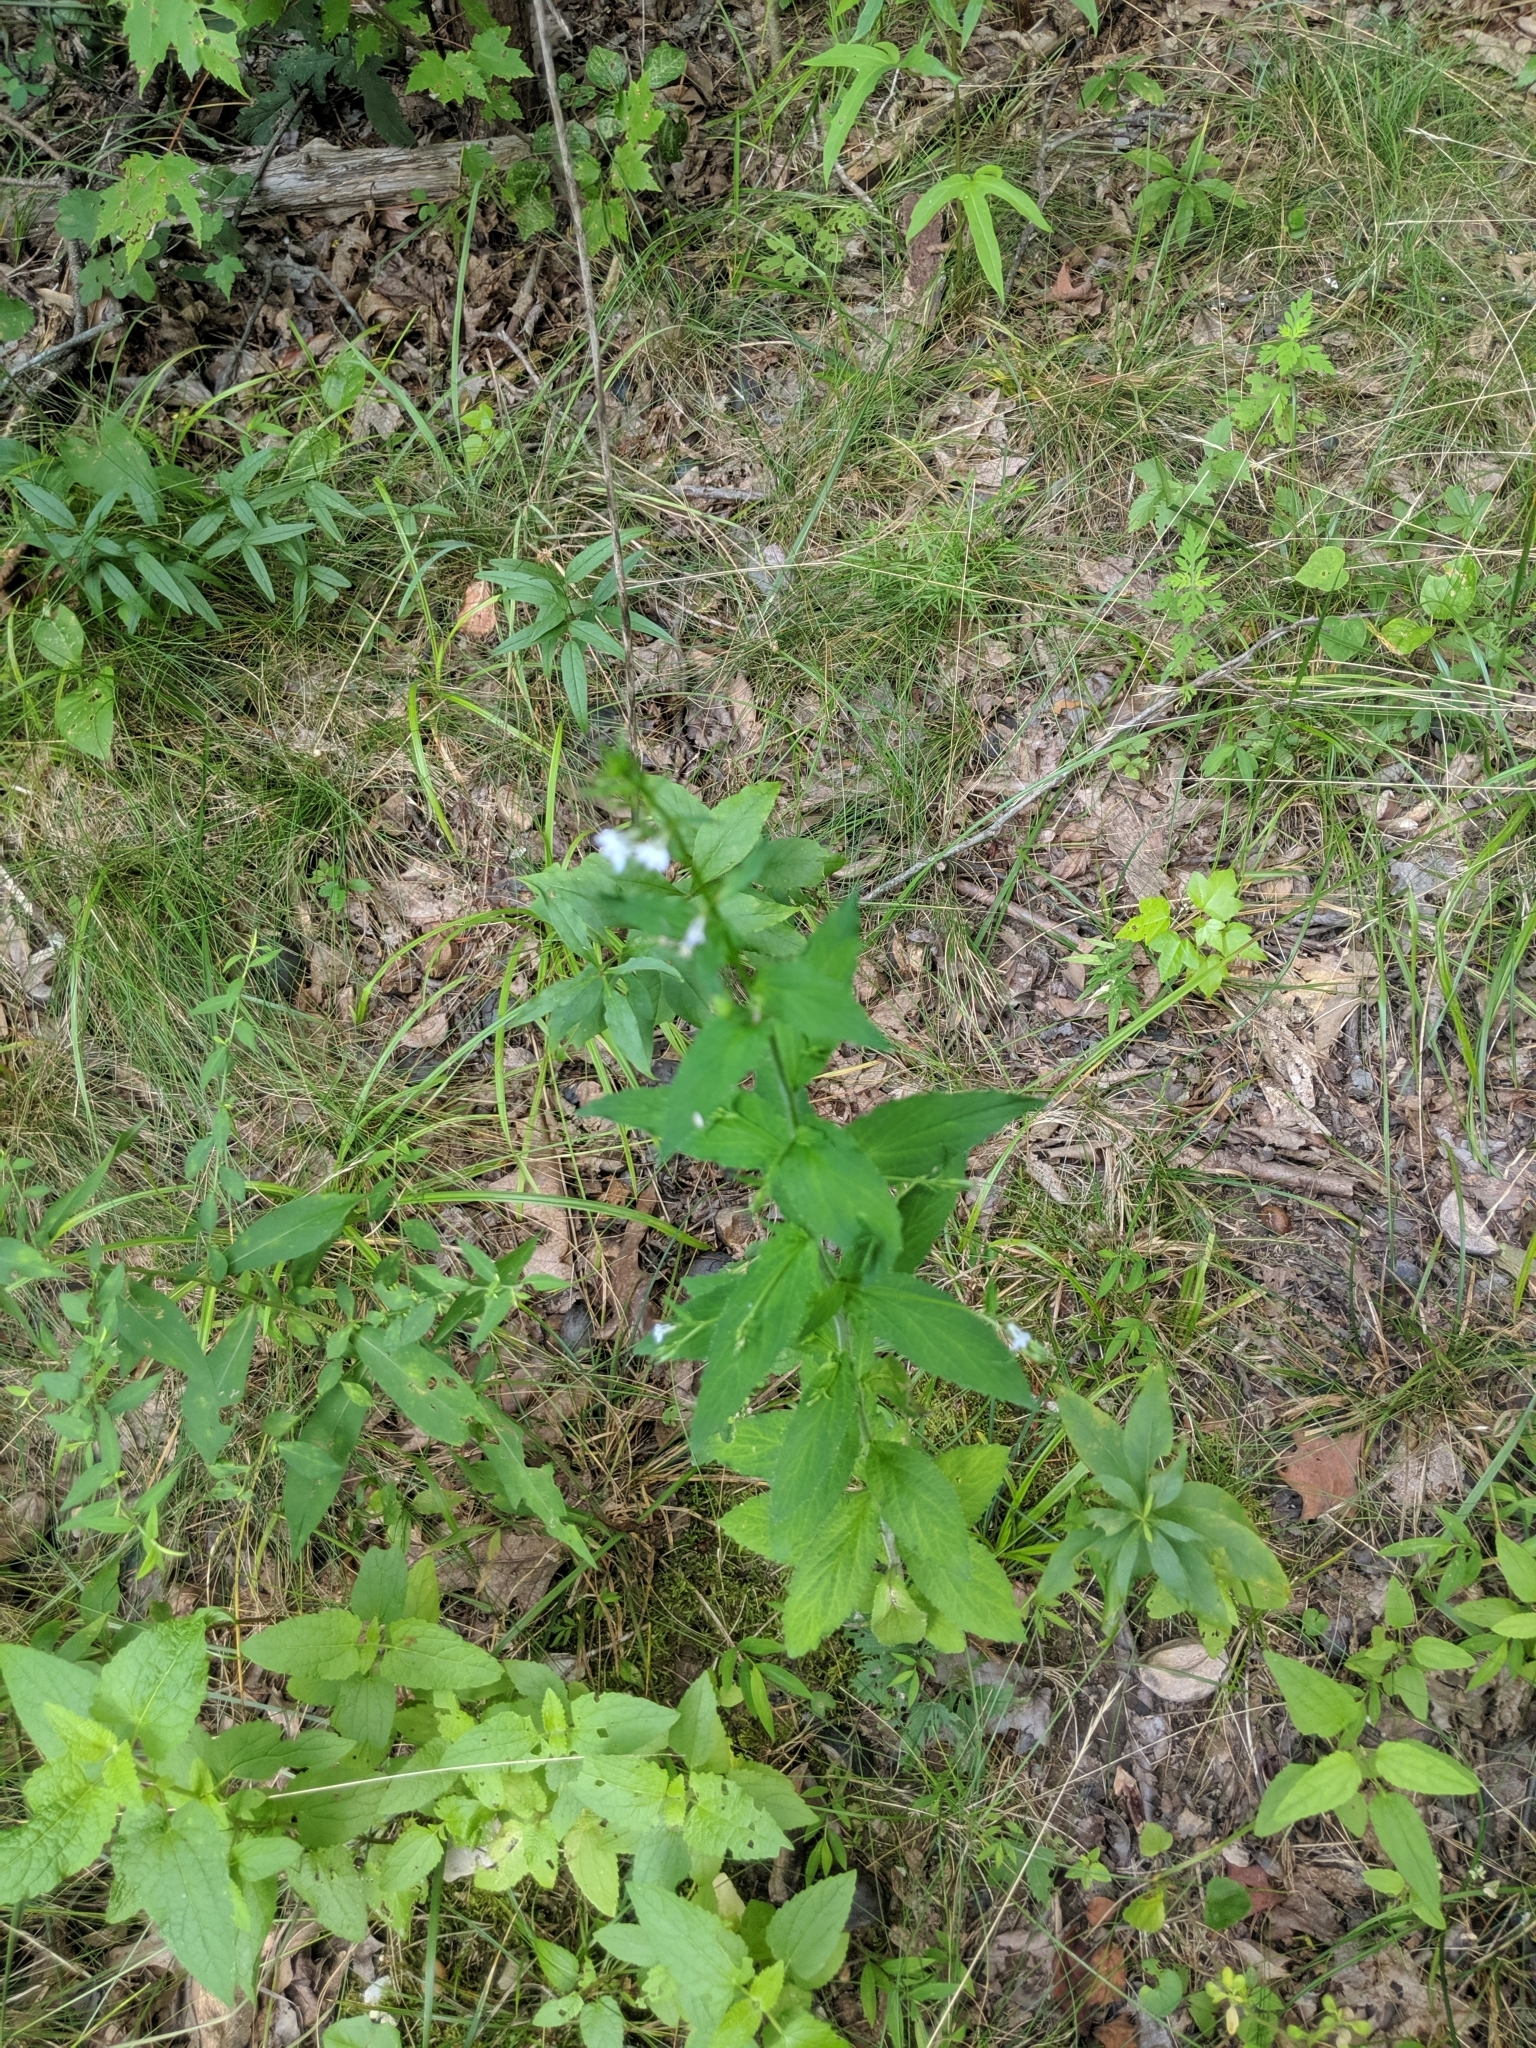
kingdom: Plantae
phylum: Tracheophyta
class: Magnoliopsida
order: Asterales
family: Campanulaceae
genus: Lobelia
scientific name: Lobelia inflata
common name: Indian tobacco
